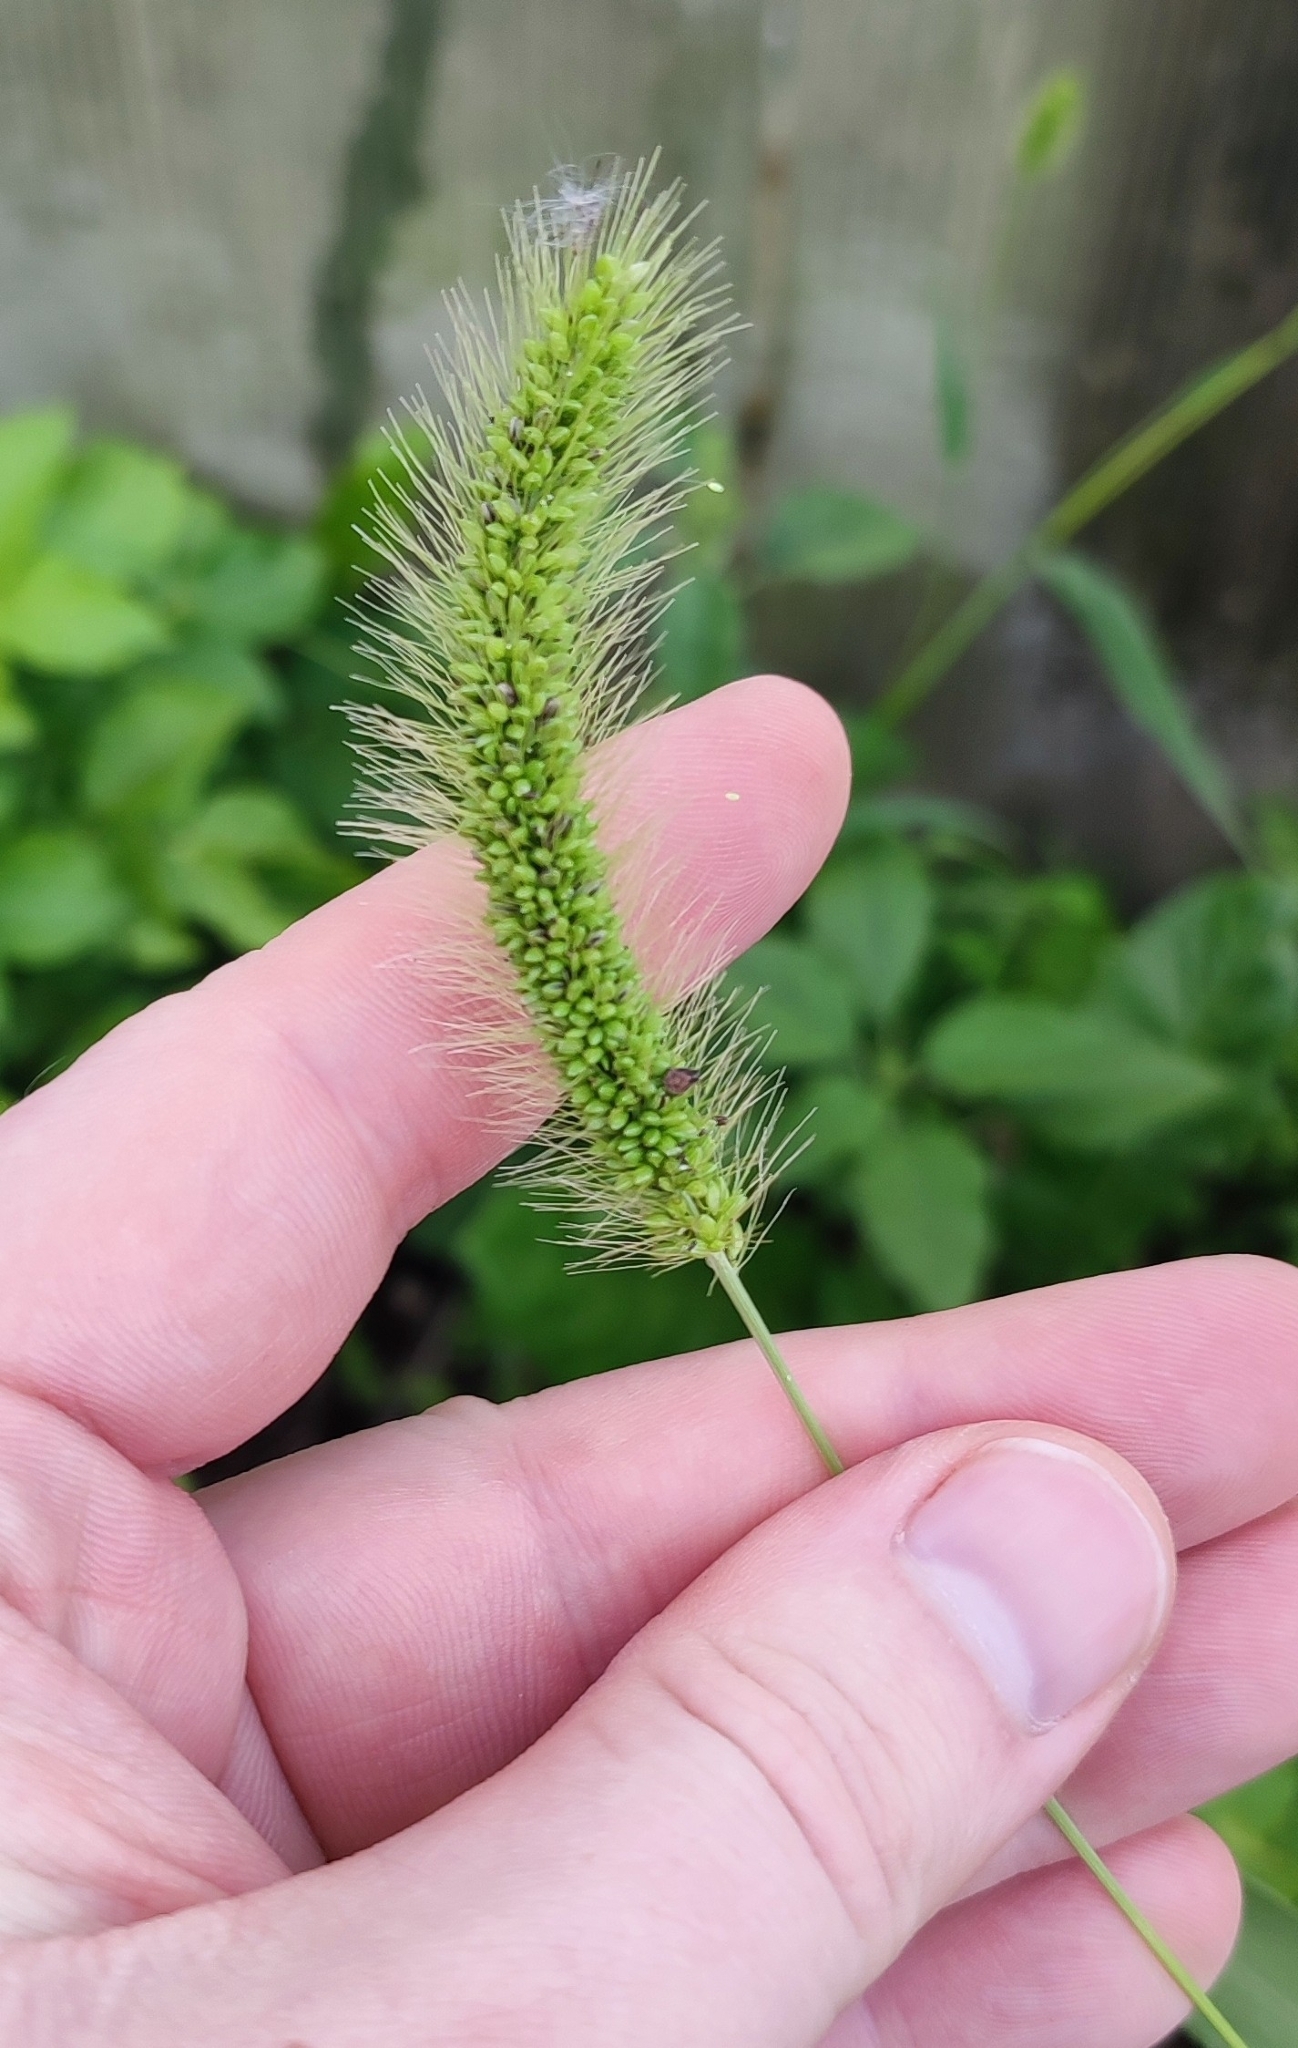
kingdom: Plantae
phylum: Tracheophyta
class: Liliopsida
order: Poales
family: Poaceae
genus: Setaria
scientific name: Setaria viridis
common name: Green bristlegrass
